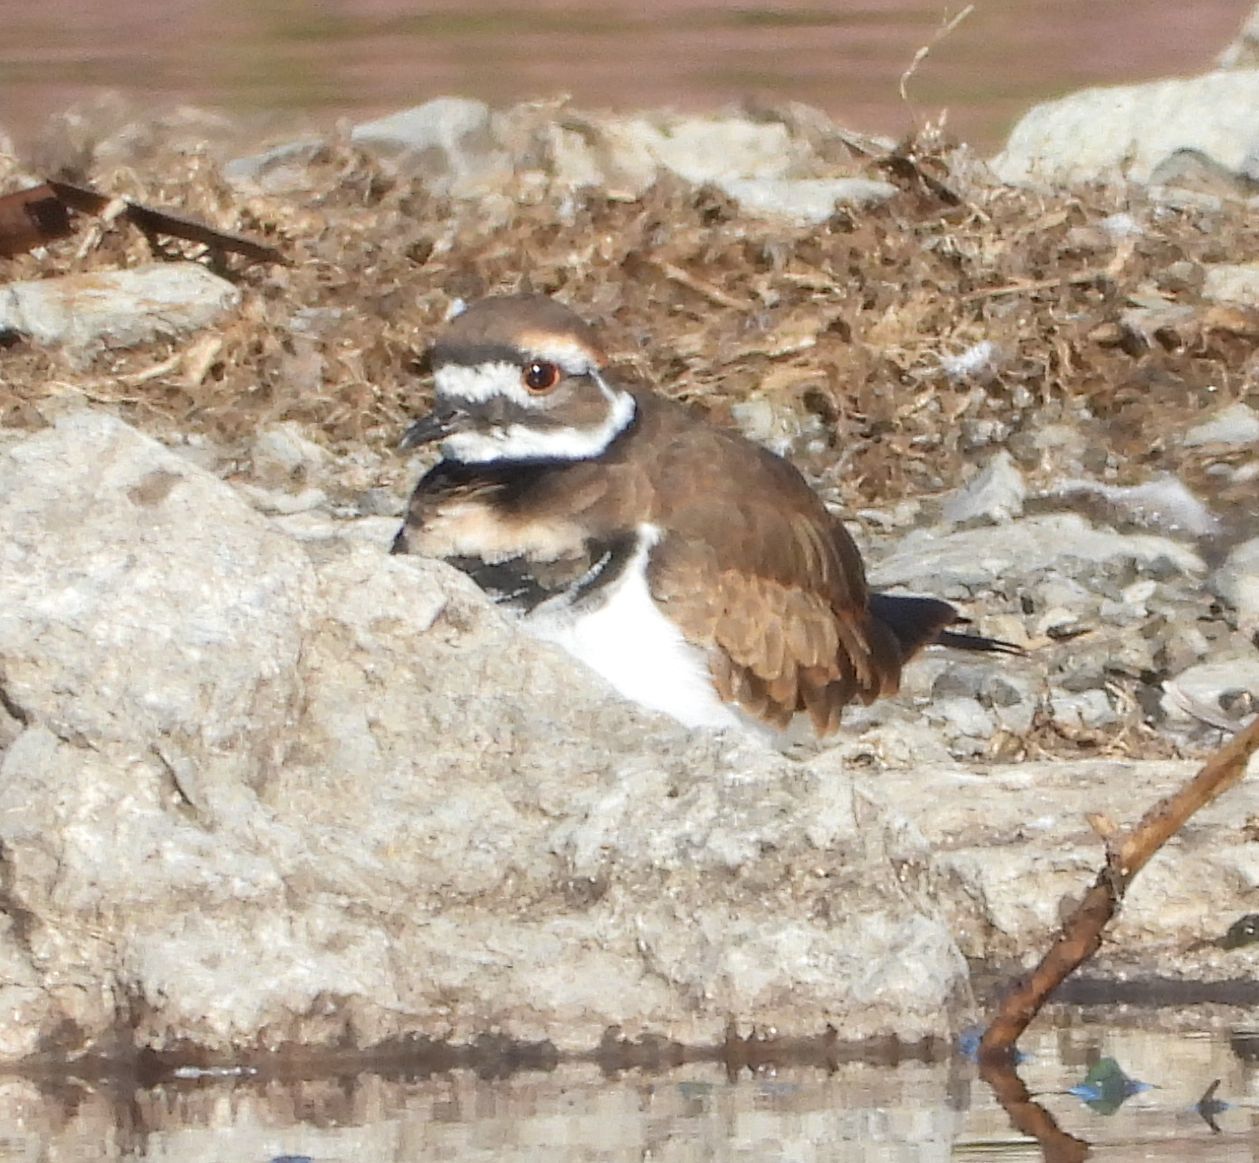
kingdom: Animalia
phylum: Chordata
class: Aves
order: Charadriiformes
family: Charadriidae
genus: Charadrius
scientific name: Charadrius vociferus
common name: Killdeer
